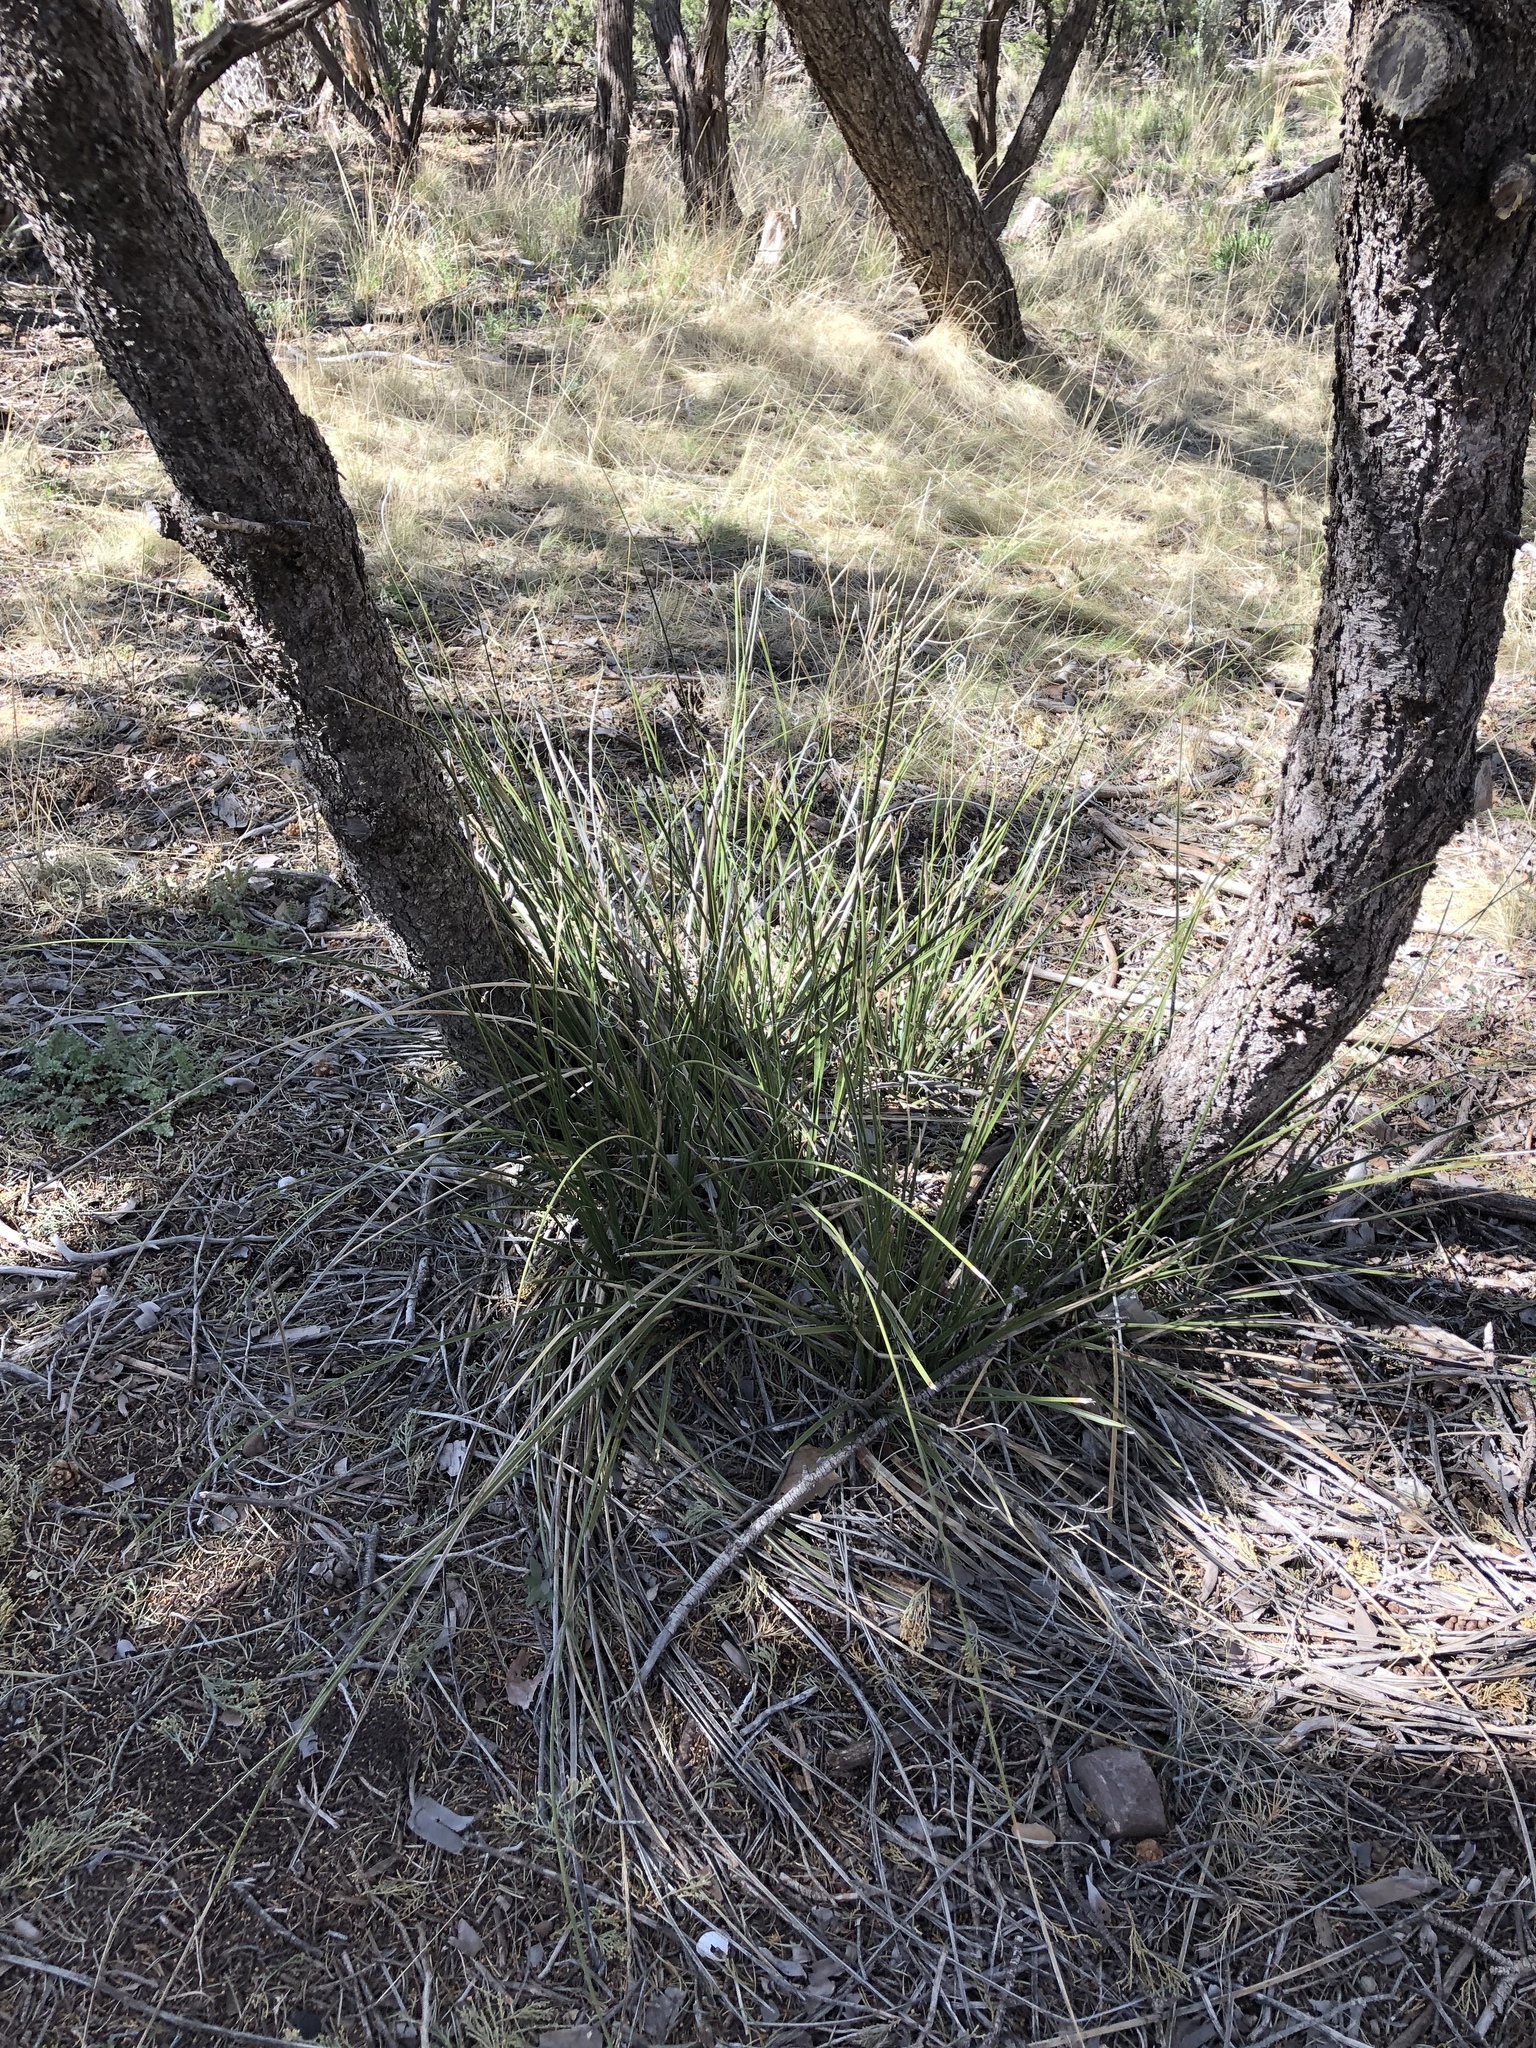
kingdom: Plantae
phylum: Tracheophyta
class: Liliopsida
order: Asparagales
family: Asparagaceae
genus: Nolina
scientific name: Nolina microcarpa
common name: Bear-grass
